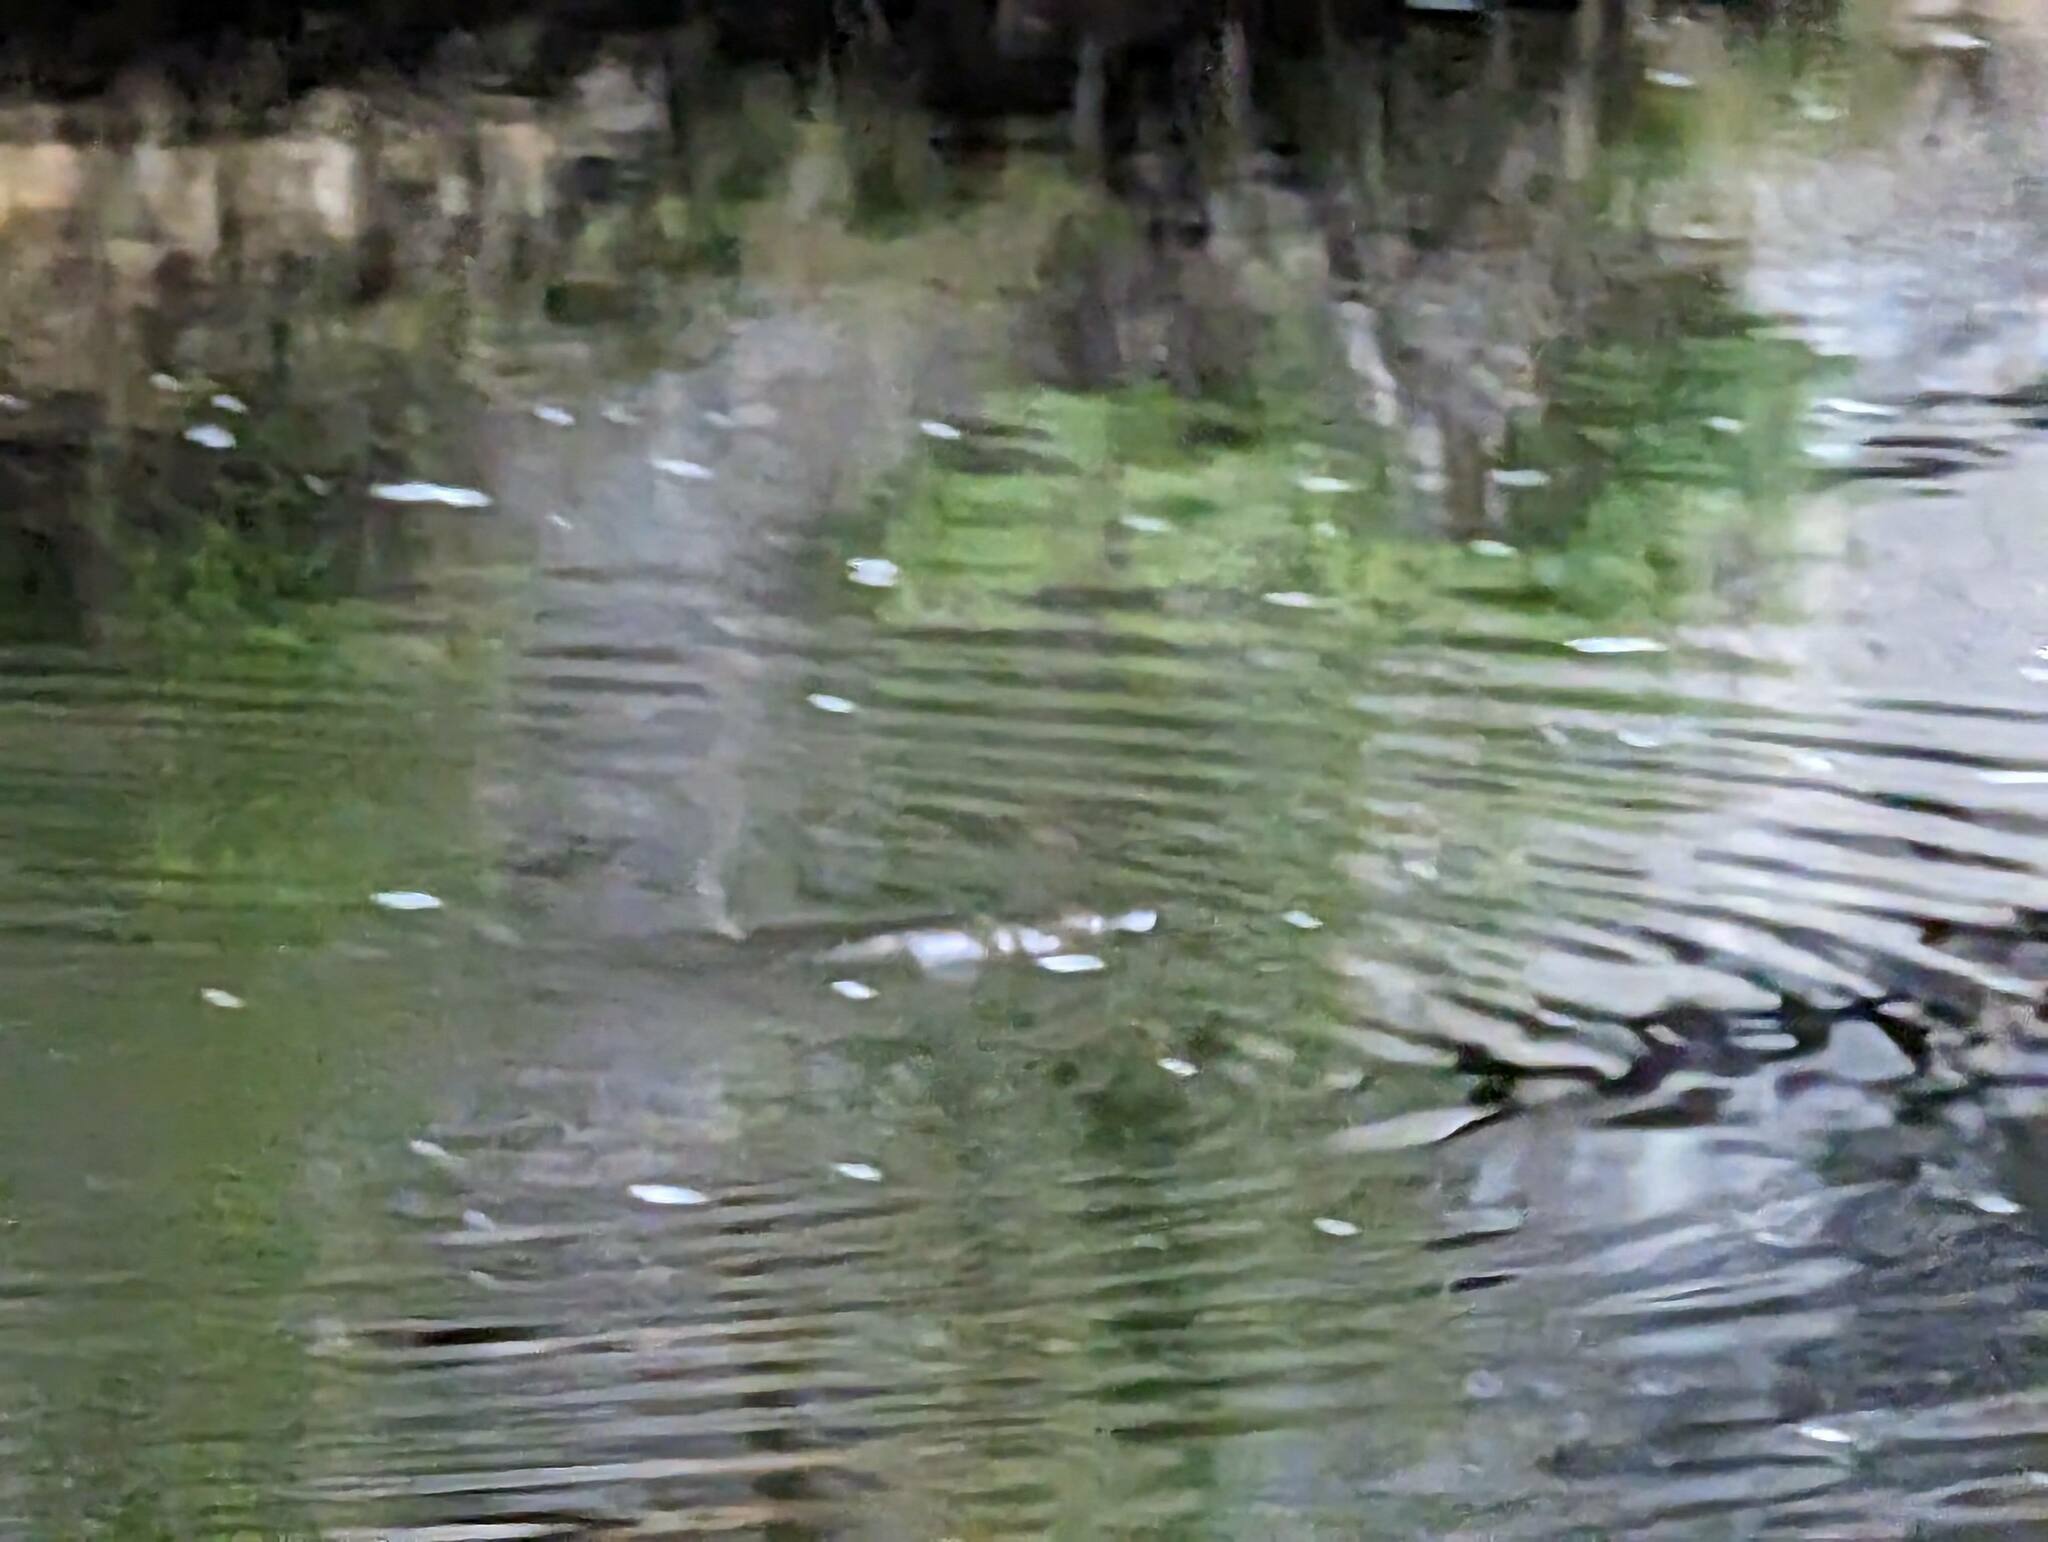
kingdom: Animalia
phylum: Chordata
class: Mammalia
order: Monotremata
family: Ornithorhynchidae
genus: Ornithorhynchus
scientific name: Ornithorhynchus anatinus
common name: Platypus
